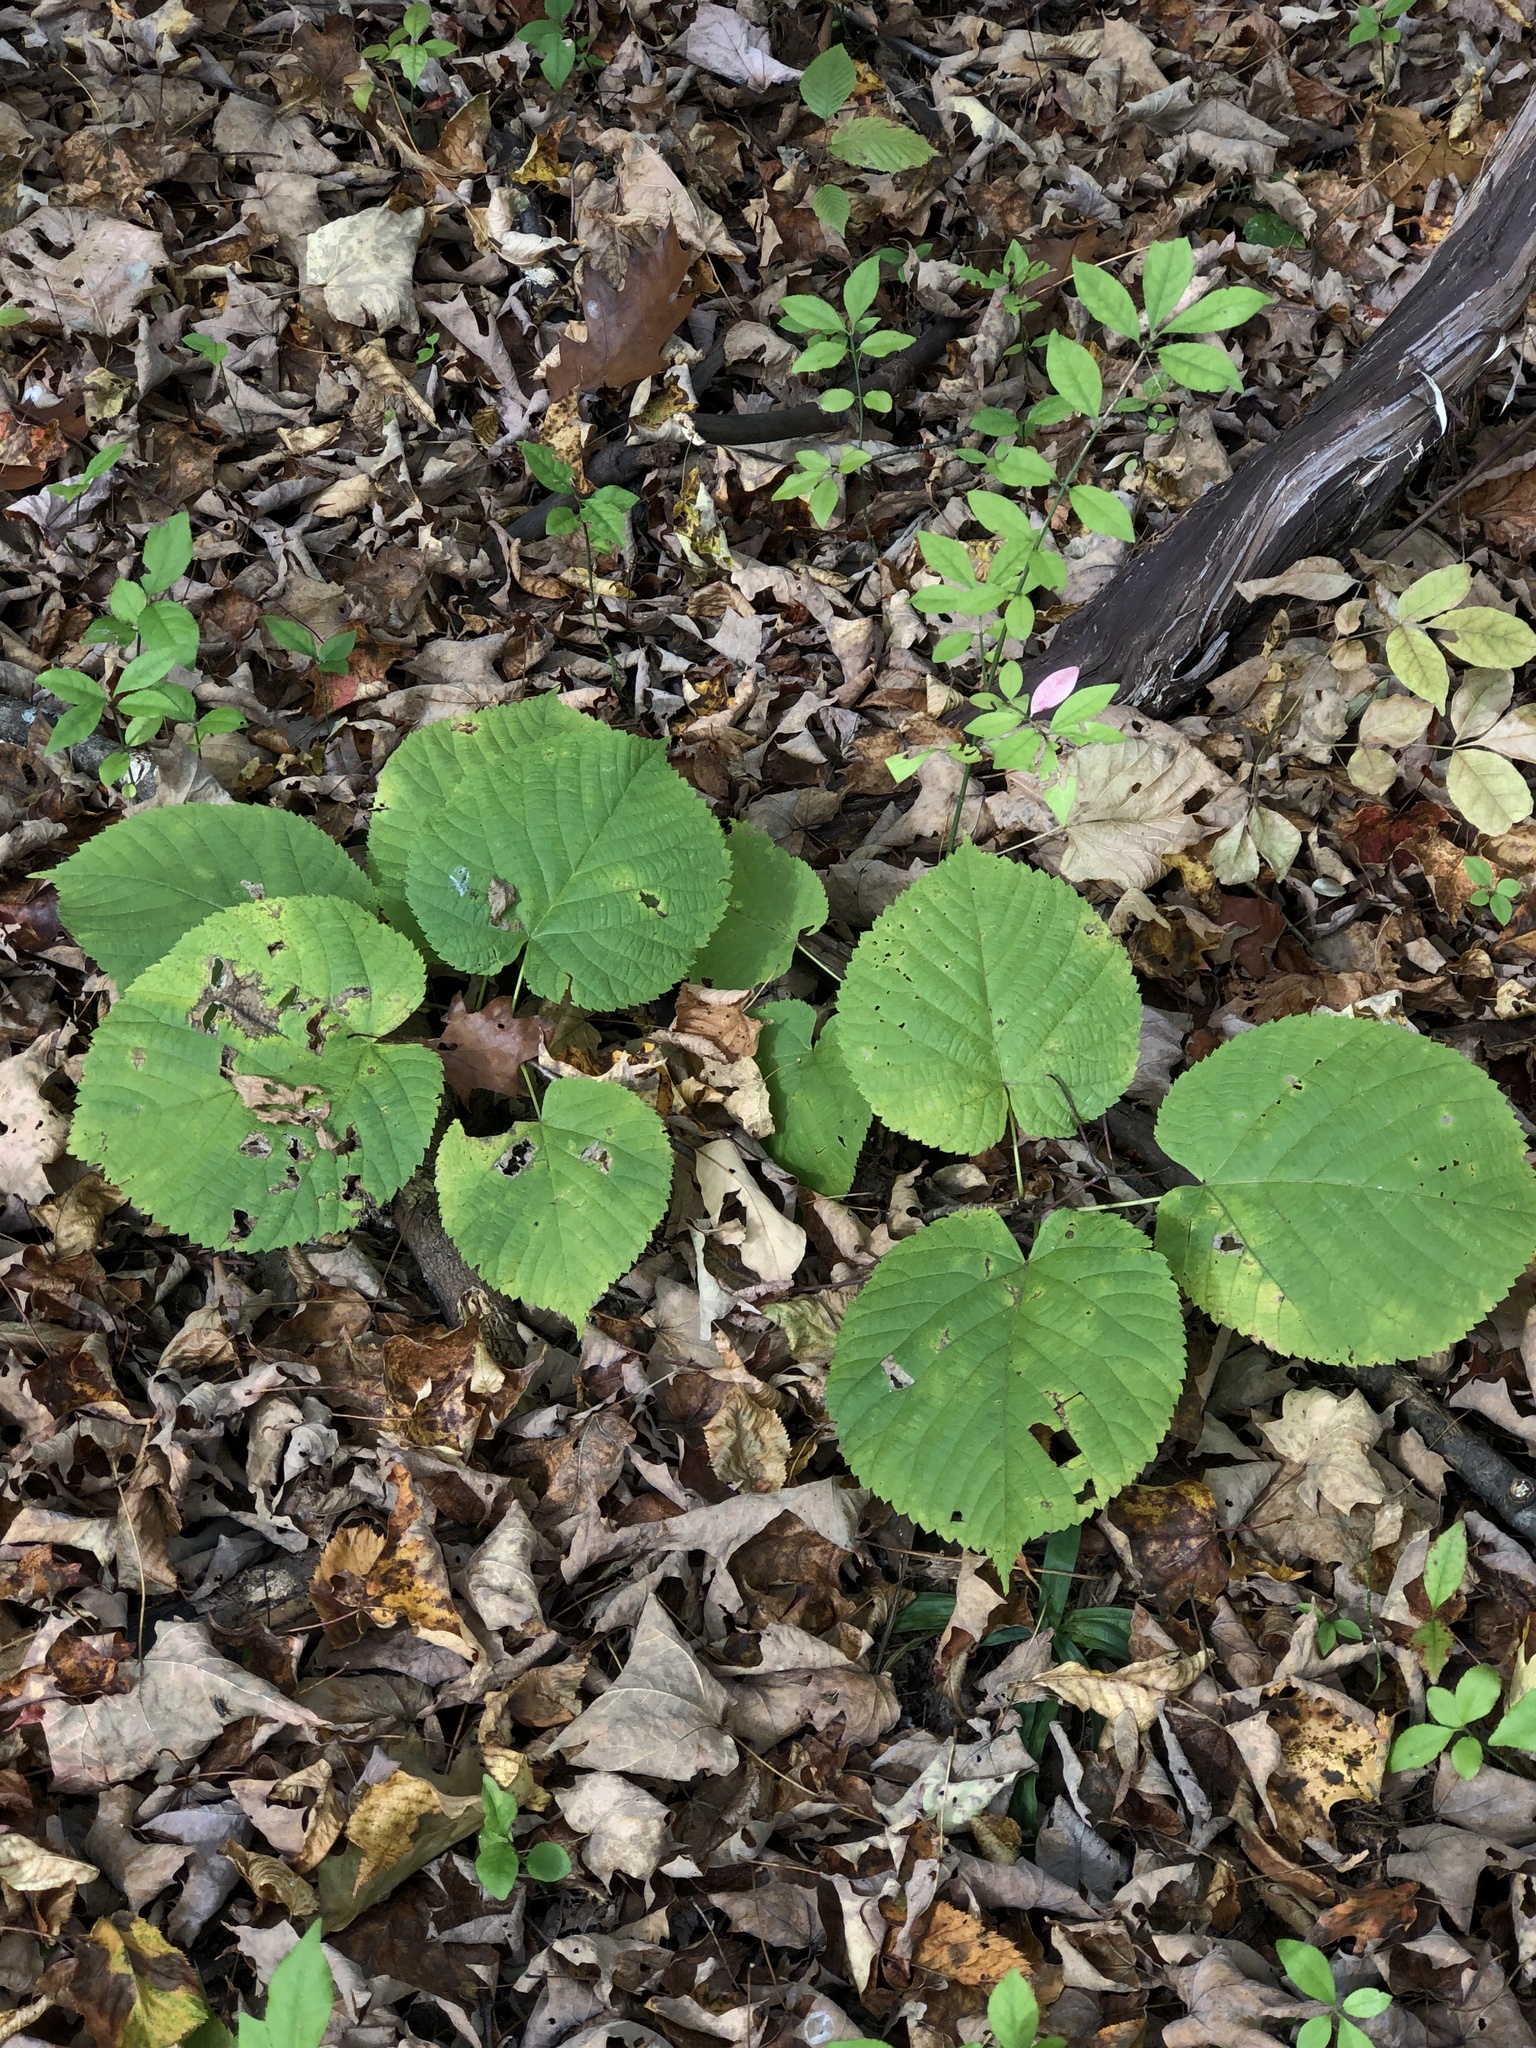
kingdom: Plantae
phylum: Tracheophyta
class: Magnoliopsida
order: Malvales
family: Malvaceae
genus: Tilia
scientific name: Tilia americana
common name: Basswood
